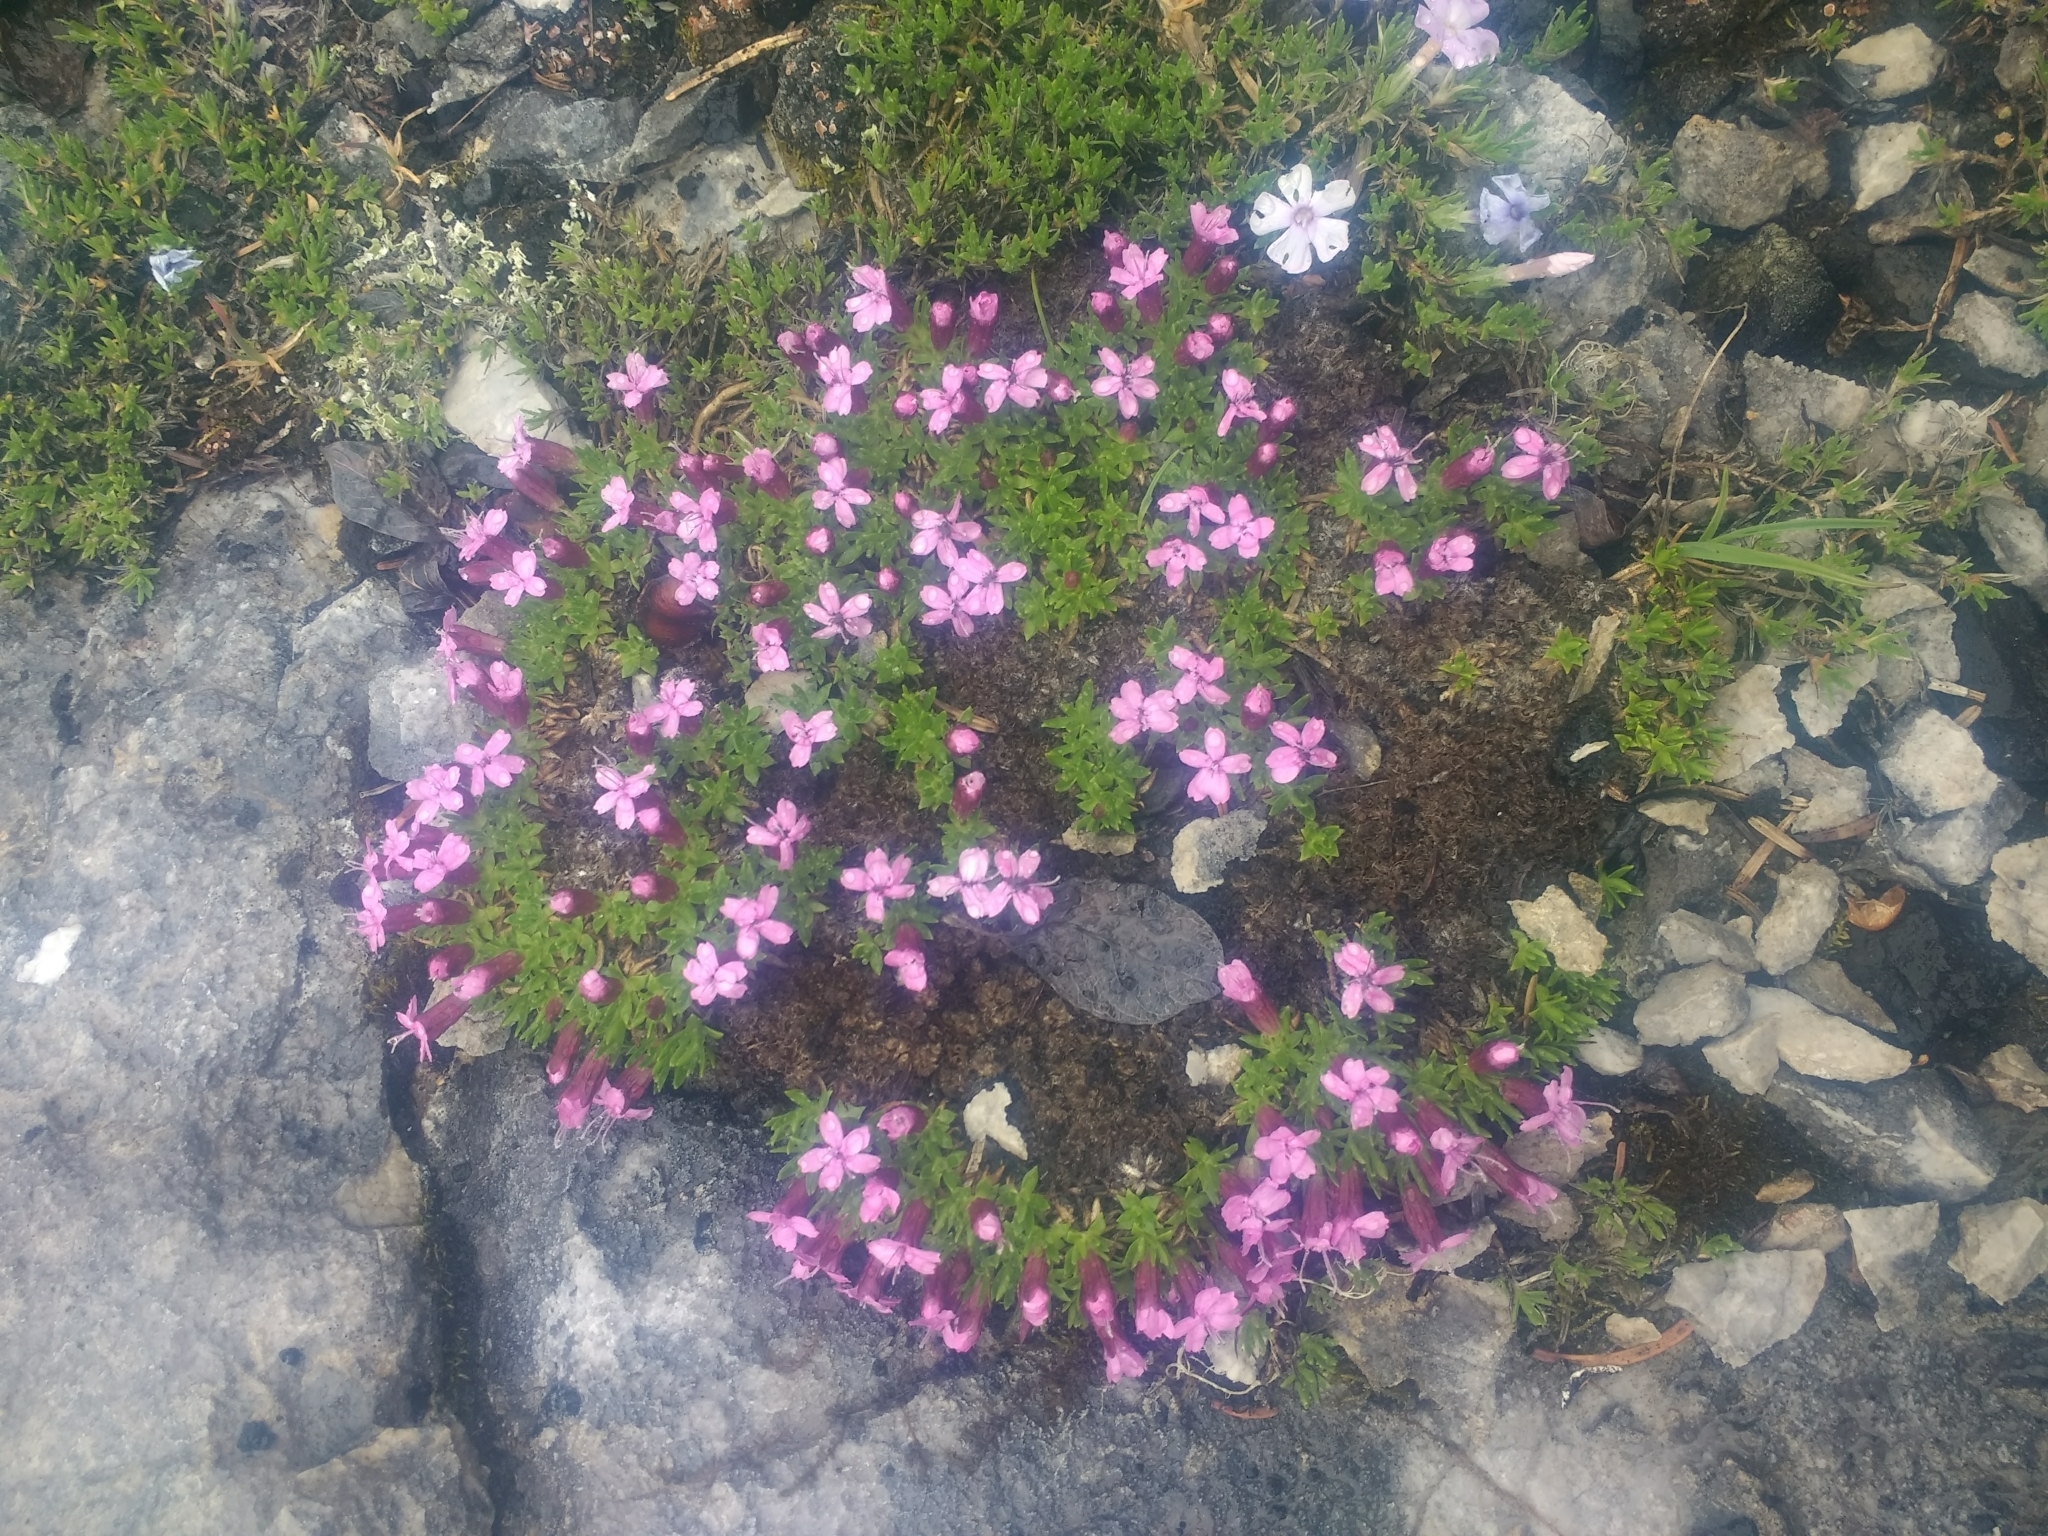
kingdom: Plantae
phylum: Tracheophyta
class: Magnoliopsida
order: Caryophyllales
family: Caryophyllaceae
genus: Silene
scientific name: Silene acaulis
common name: Moss campion
